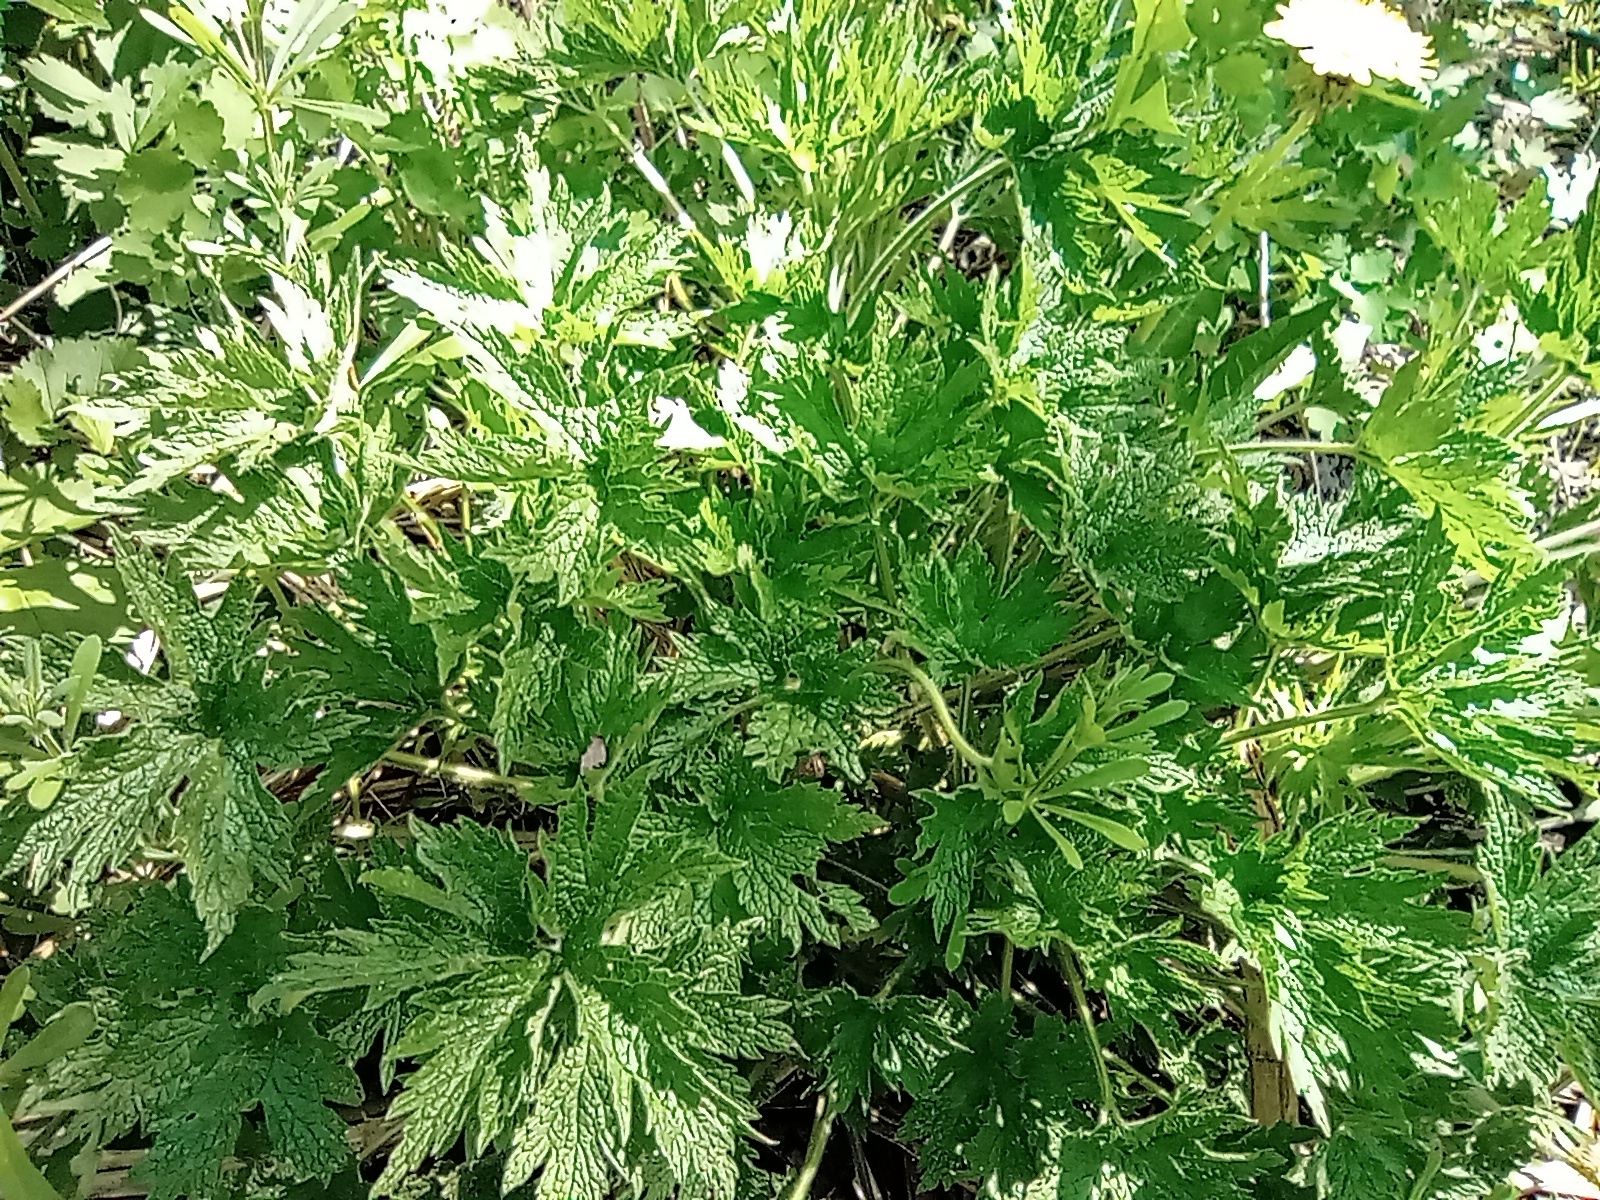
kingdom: Plantae
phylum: Tracheophyta
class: Magnoliopsida
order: Lamiales
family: Lamiaceae
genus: Leonurus
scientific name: Leonurus quinquelobatus
